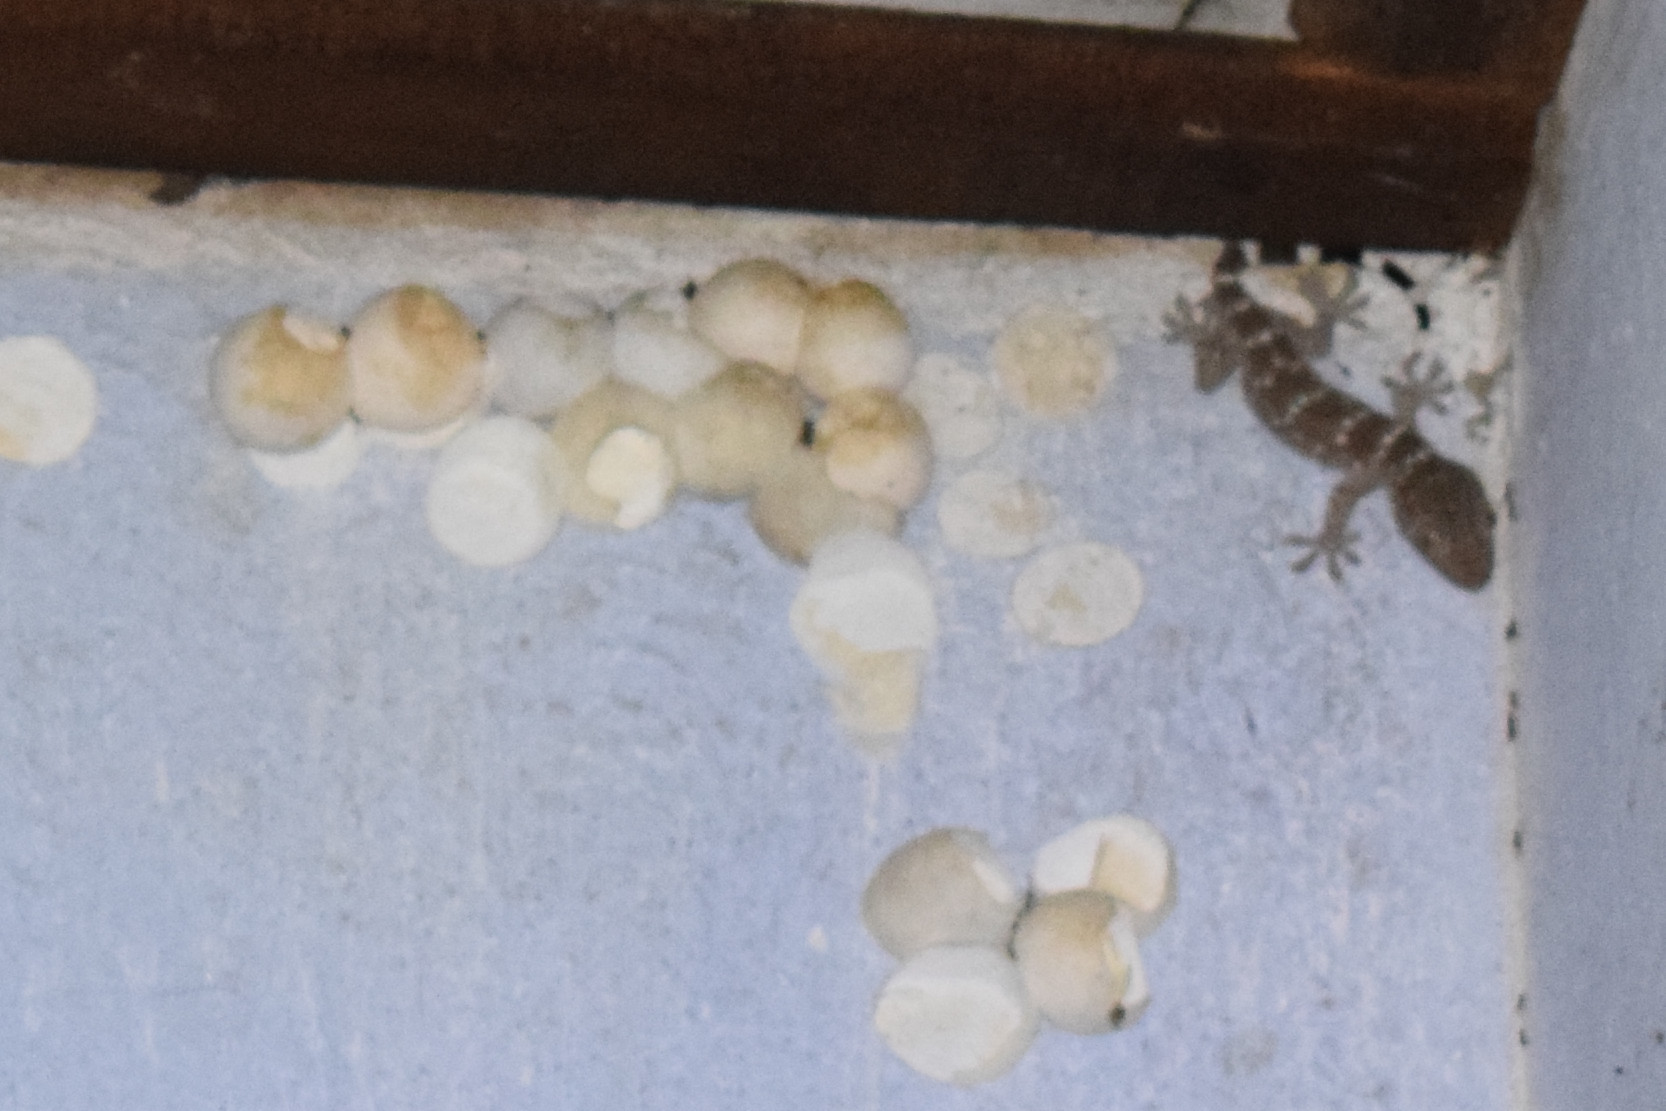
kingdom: Animalia
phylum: Chordata
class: Squamata
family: Gekkonidae
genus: Gekko
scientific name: Gekko gecko
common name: Tokay gecko
